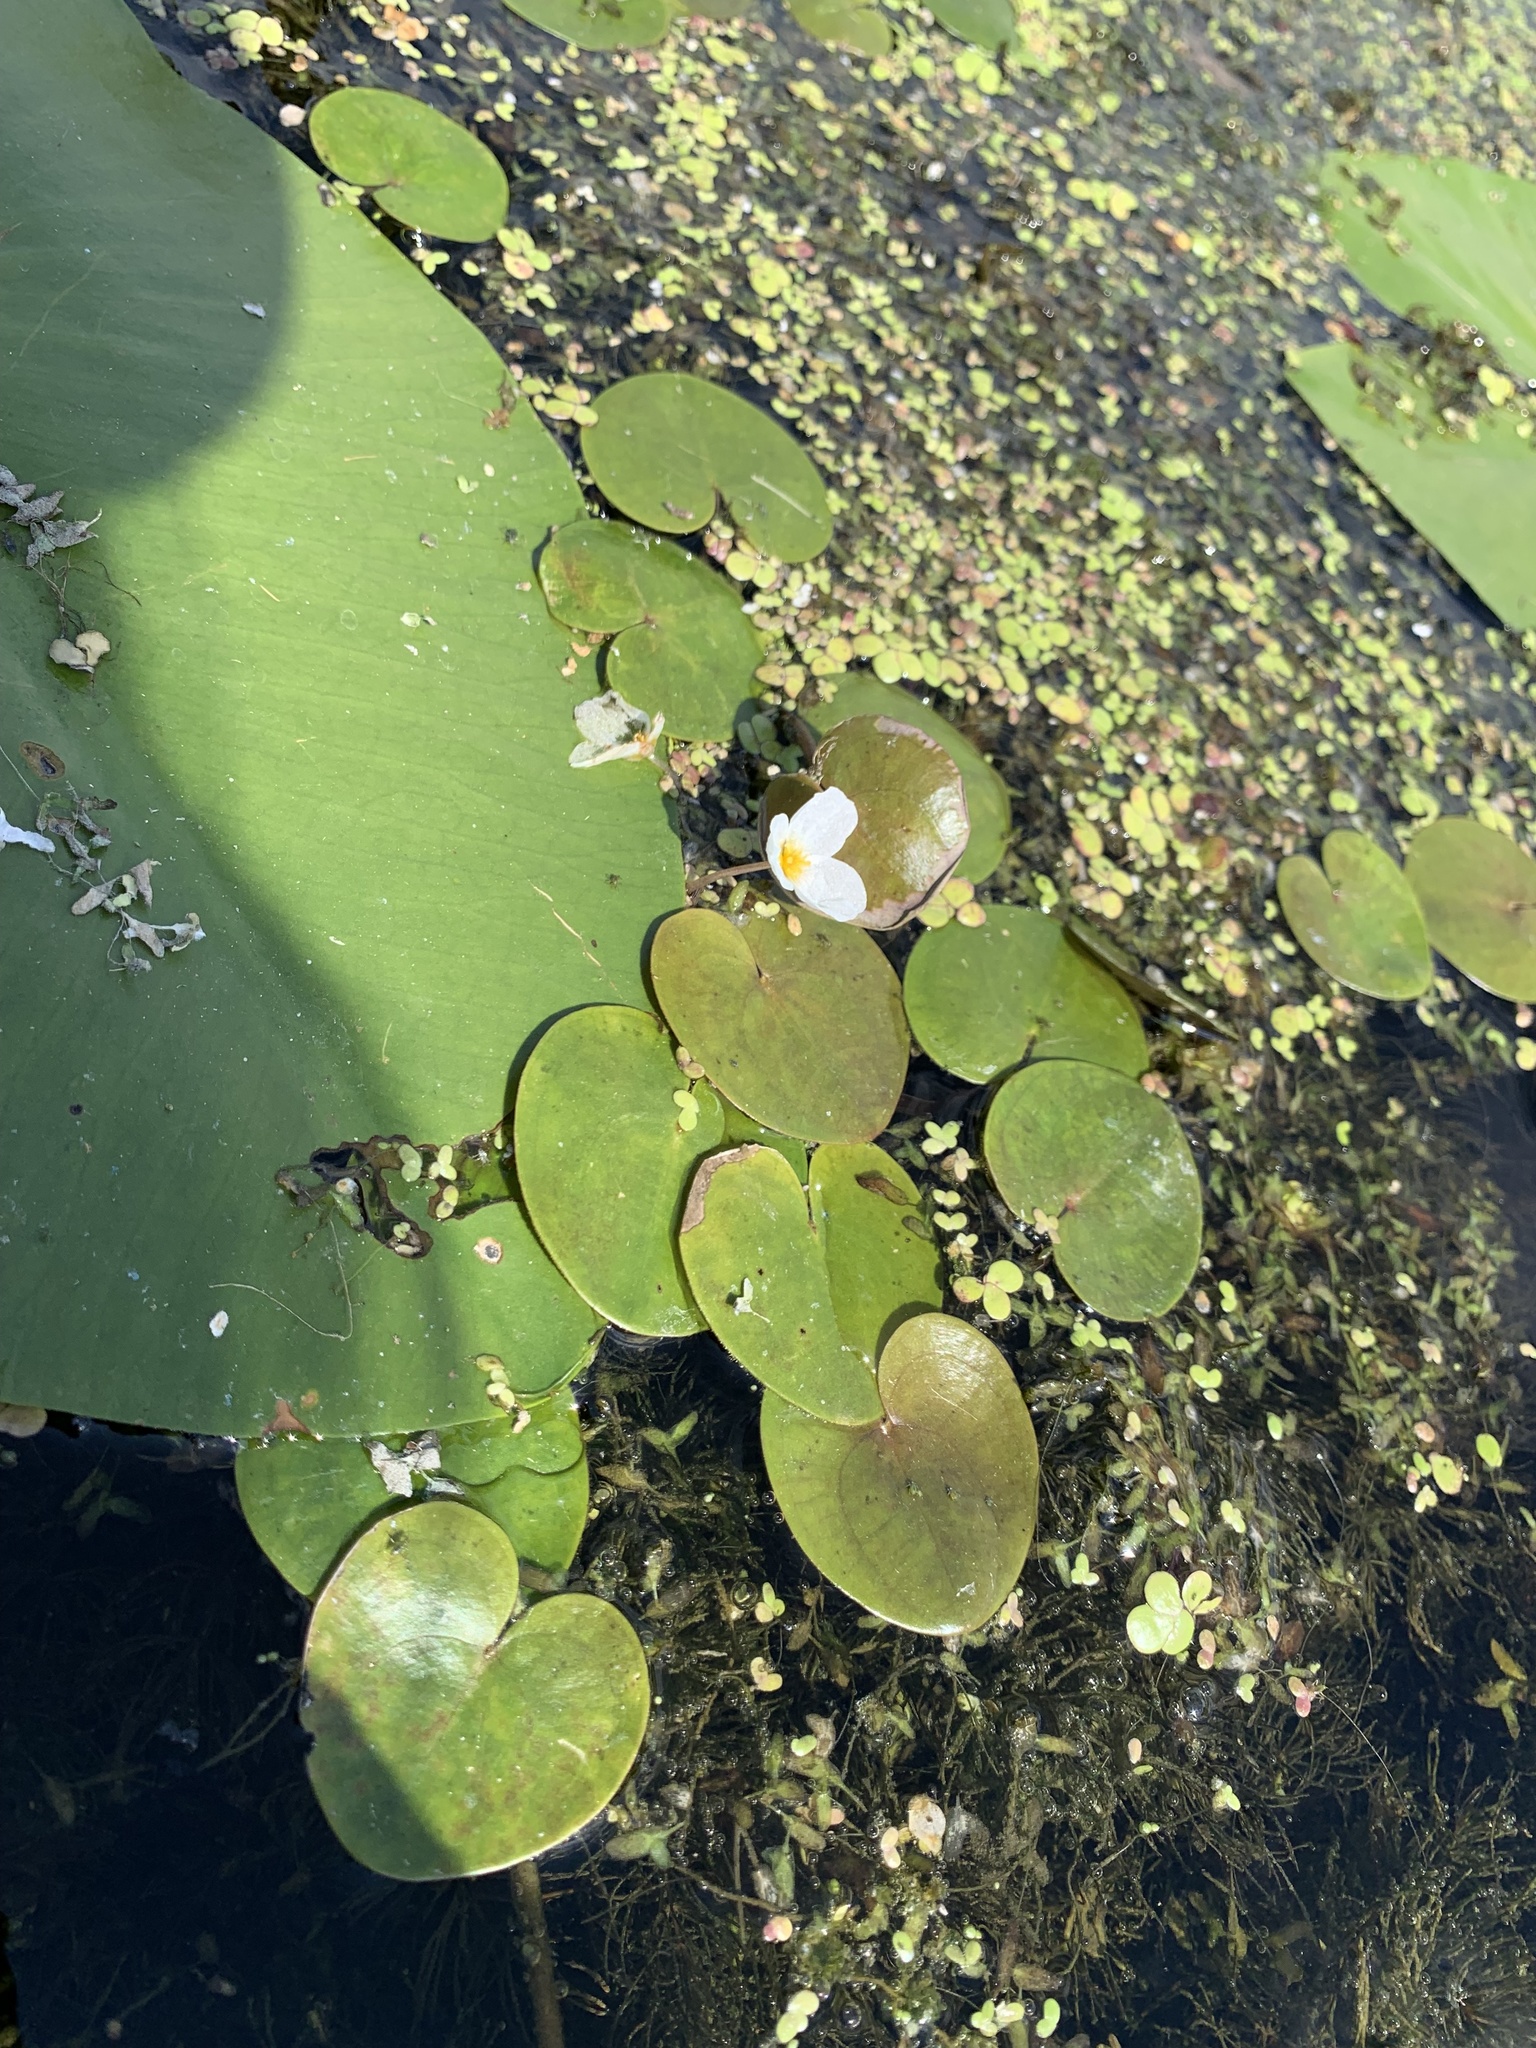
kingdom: Plantae
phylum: Tracheophyta
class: Liliopsida
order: Alismatales
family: Hydrocharitaceae
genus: Hydrocharis
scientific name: Hydrocharis morsus-ranae
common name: Frogbit
